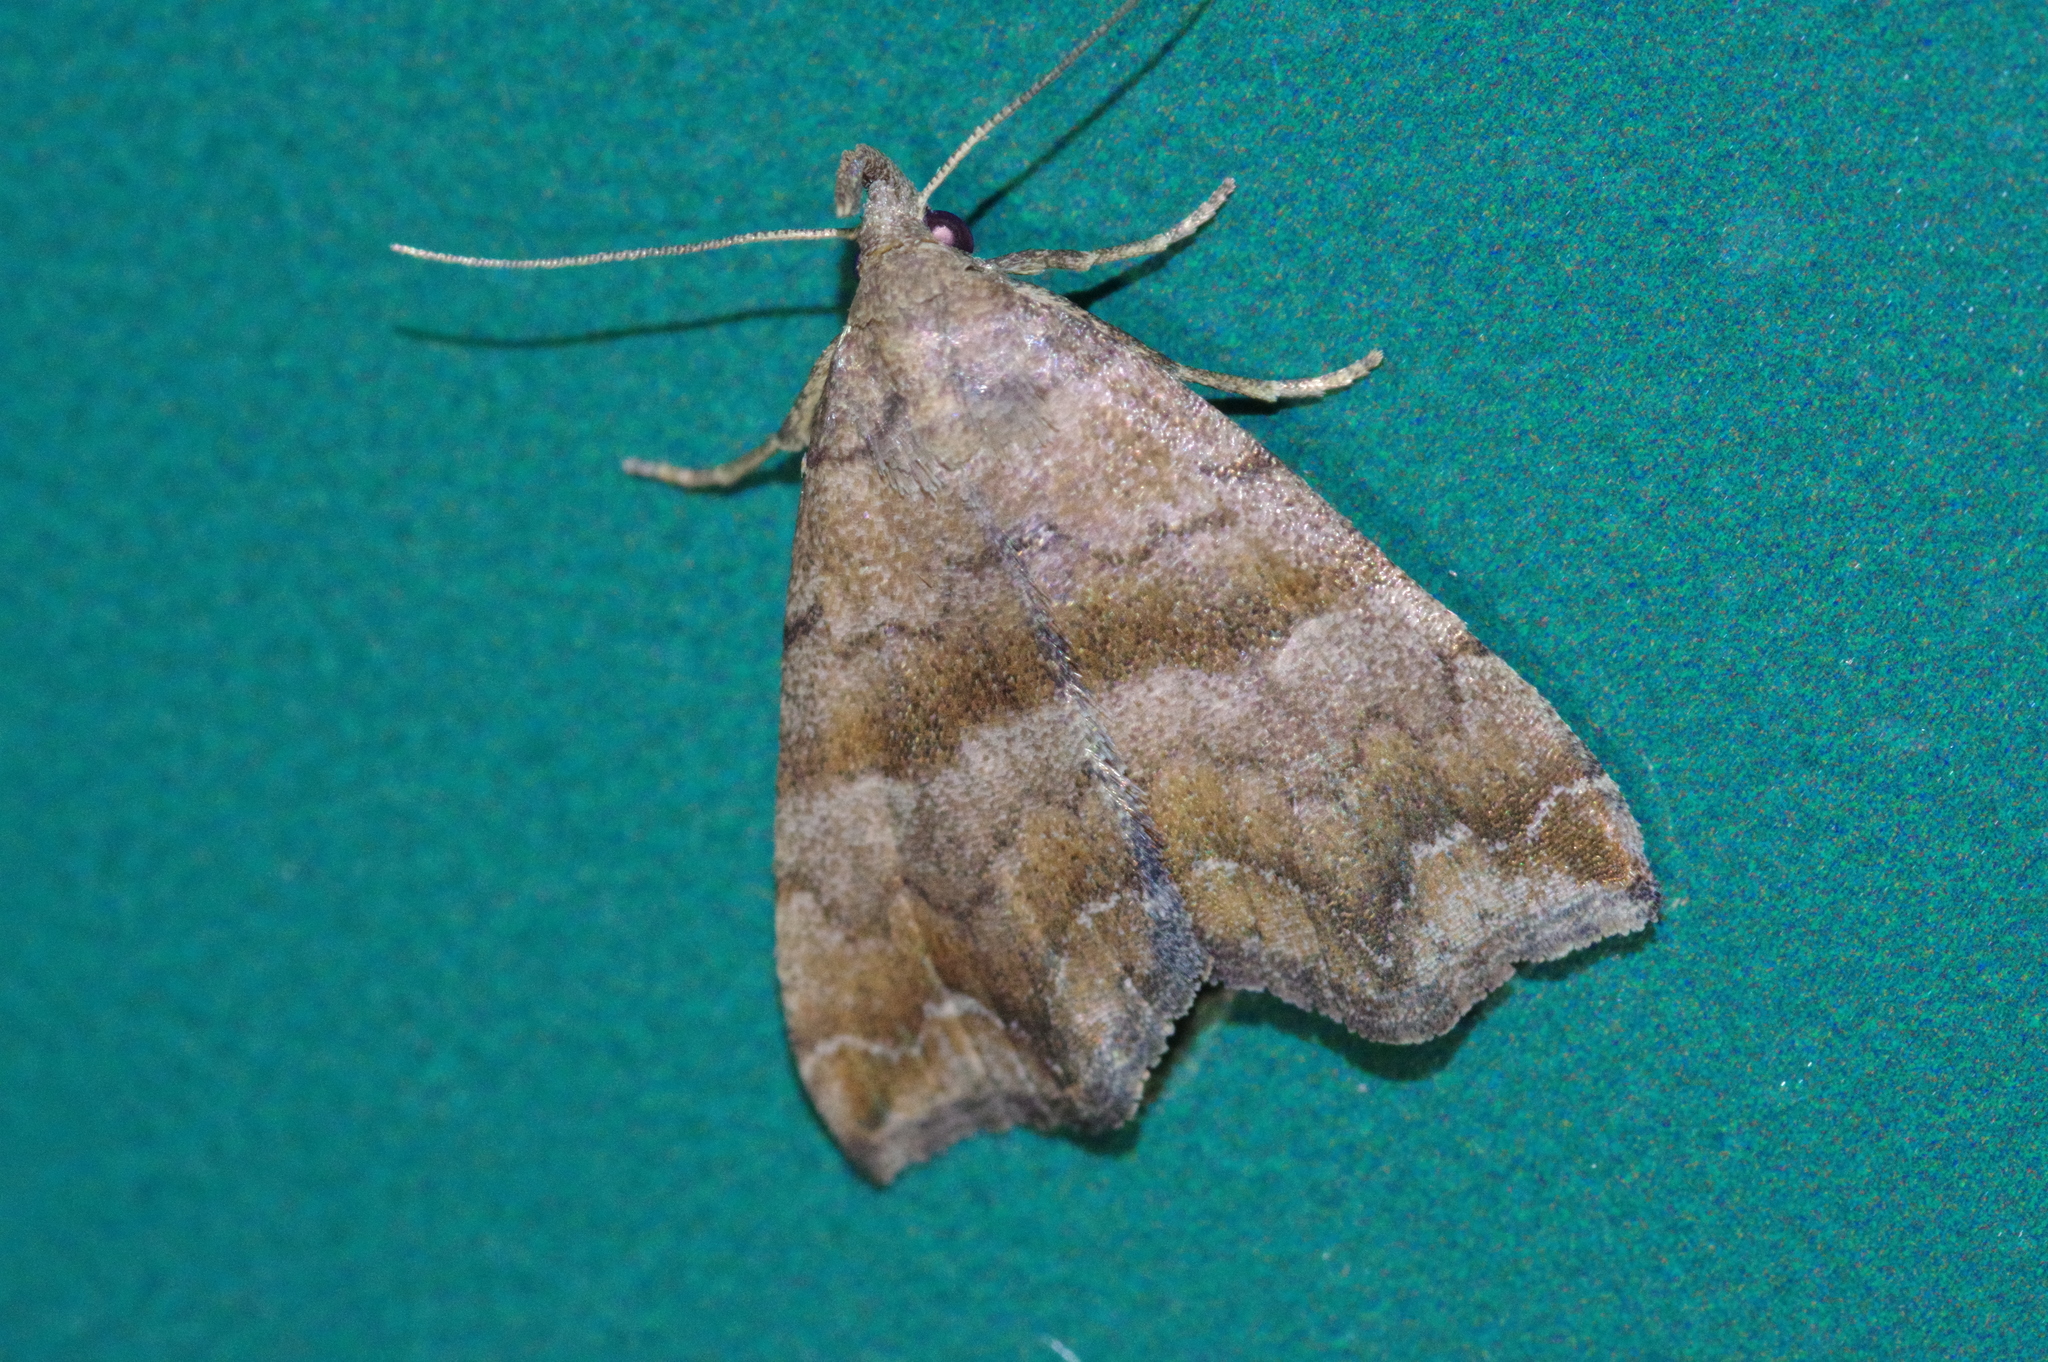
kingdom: Animalia
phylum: Arthropoda
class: Insecta
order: Lepidoptera
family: Erebidae
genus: Polypogon
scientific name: Polypogon Hipoepa fractalis
